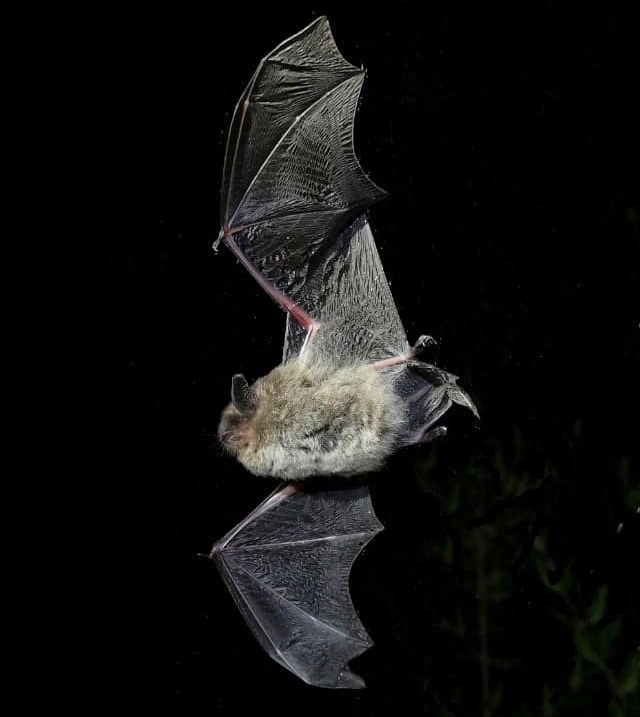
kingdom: Animalia
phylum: Chordata
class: Mammalia
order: Chiroptera
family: Vespertilionidae
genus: Myotis
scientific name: Myotis chiloensis
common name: Chilean myotis
